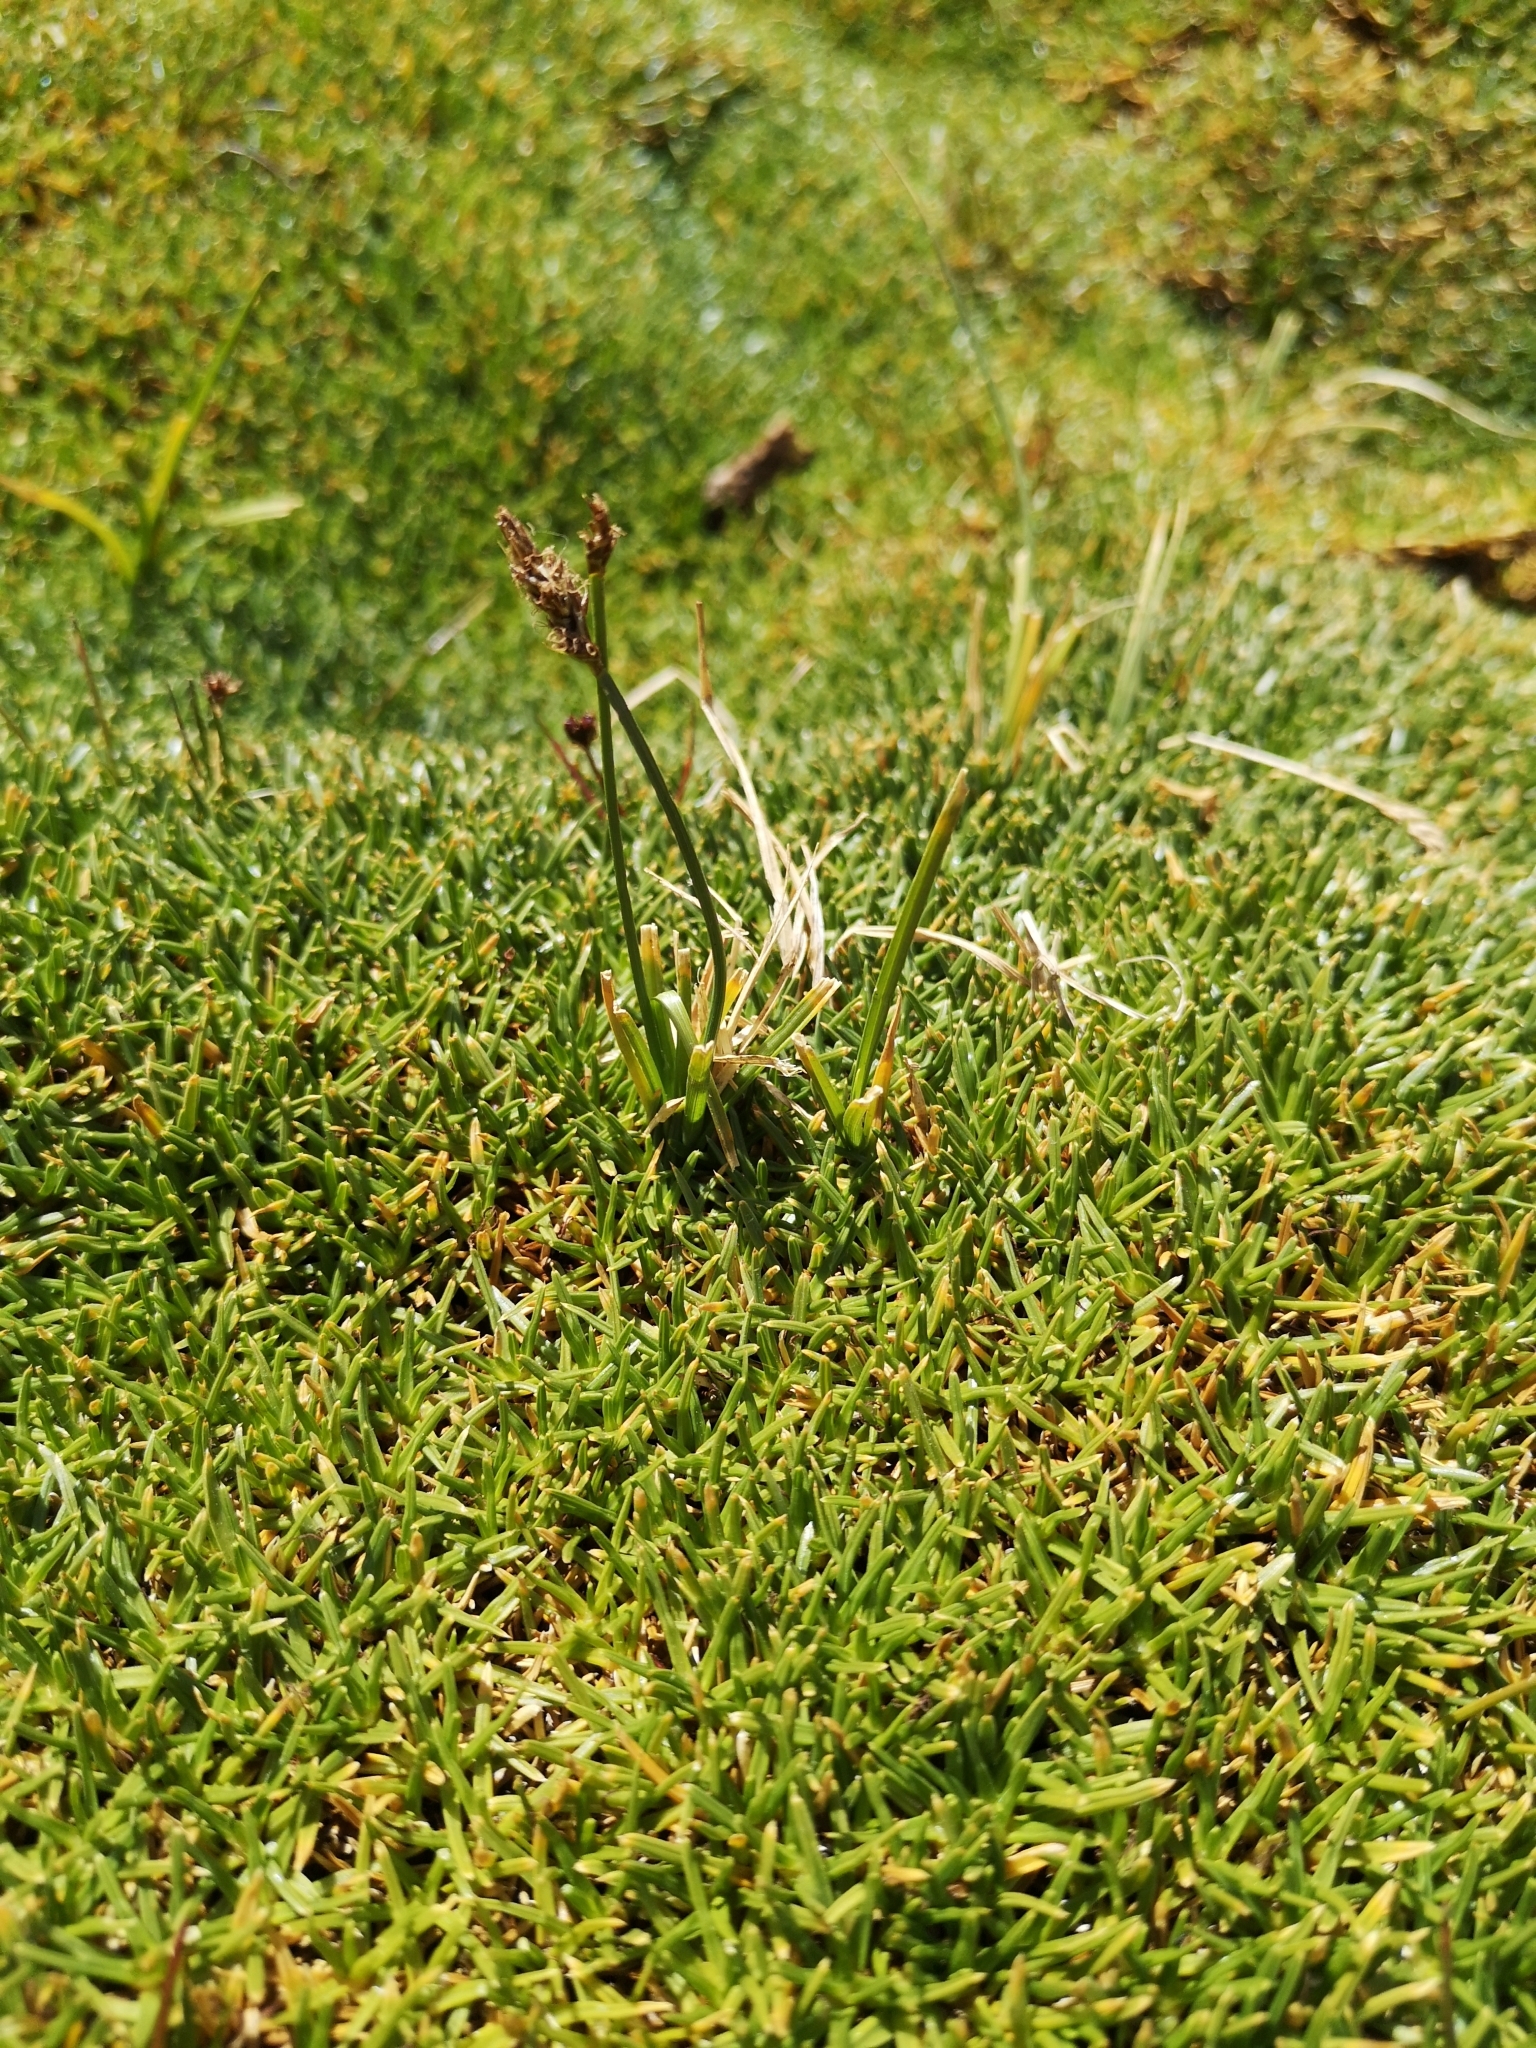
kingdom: Plantae
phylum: Tracheophyta
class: Liliopsida
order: Poales
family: Cyperaceae
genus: Carex
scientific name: Carex gayana
